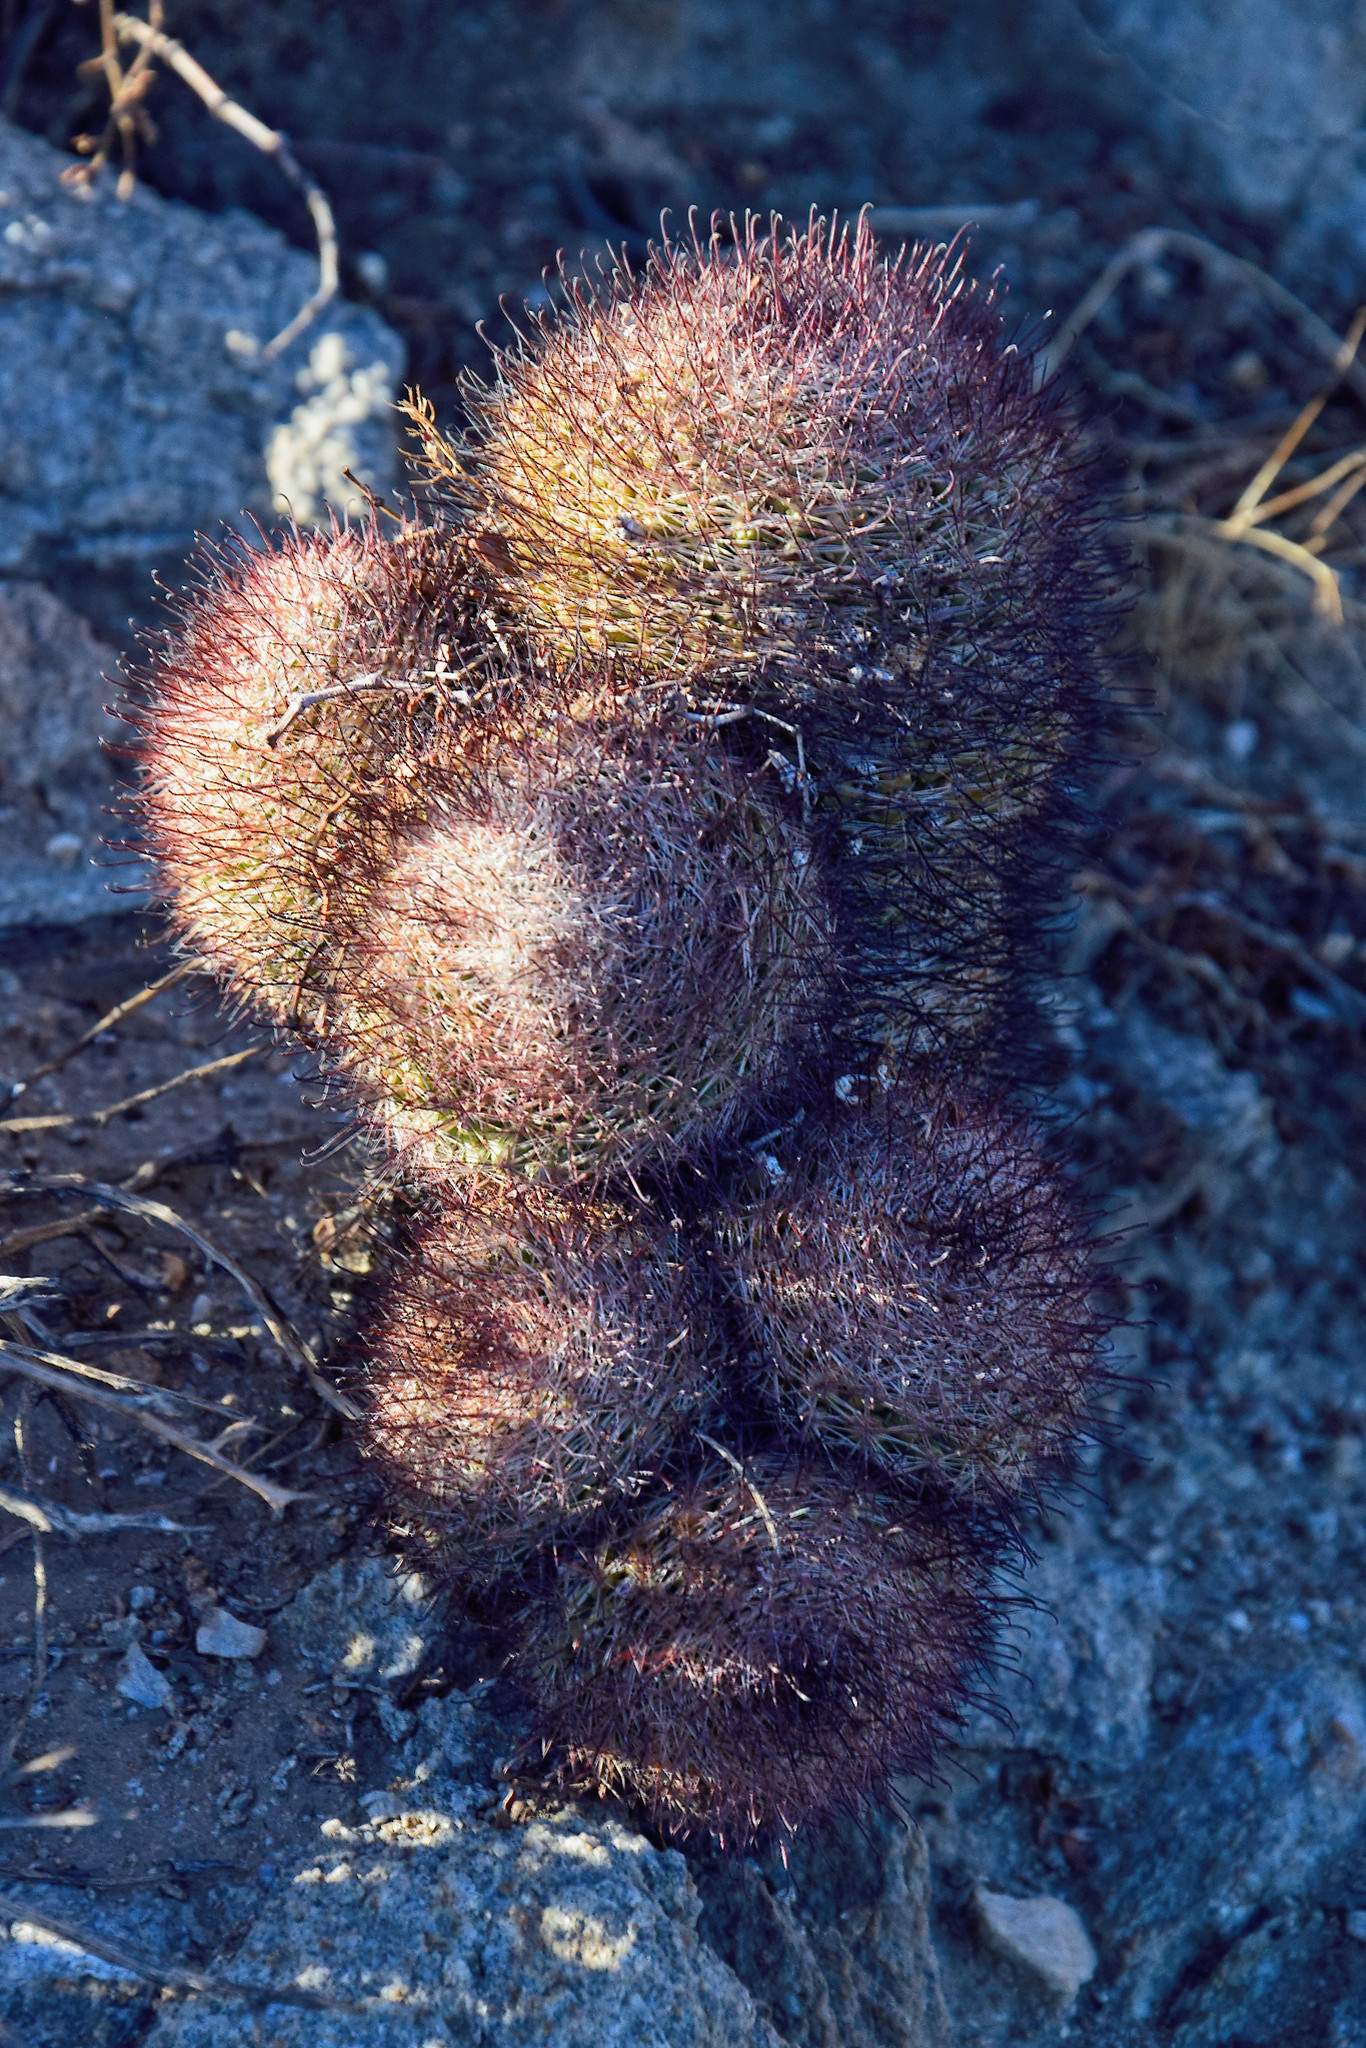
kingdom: Plantae
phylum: Tracheophyta
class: Magnoliopsida
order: Caryophyllales
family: Cactaceae
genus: Cochemiea
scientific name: Cochemiea dioica
